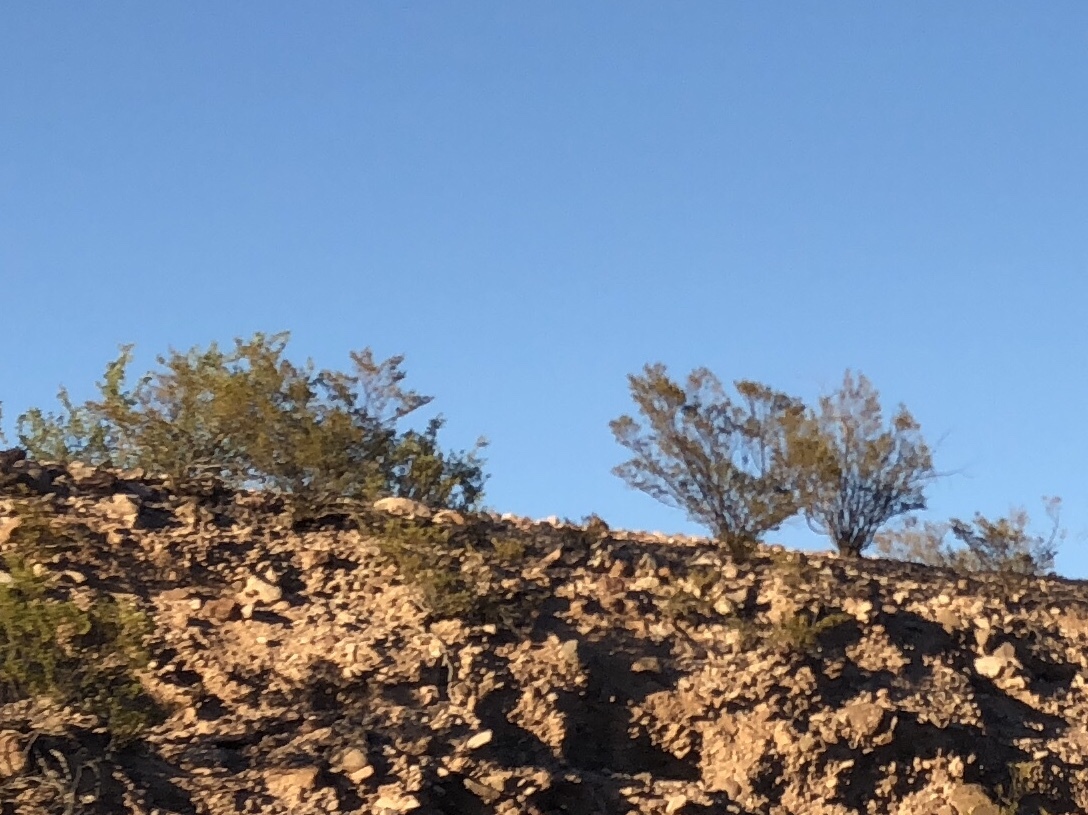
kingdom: Plantae
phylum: Tracheophyta
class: Magnoliopsida
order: Zygophyllales
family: Zygophyllaceae
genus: Larrea
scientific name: Larrea tridentata
